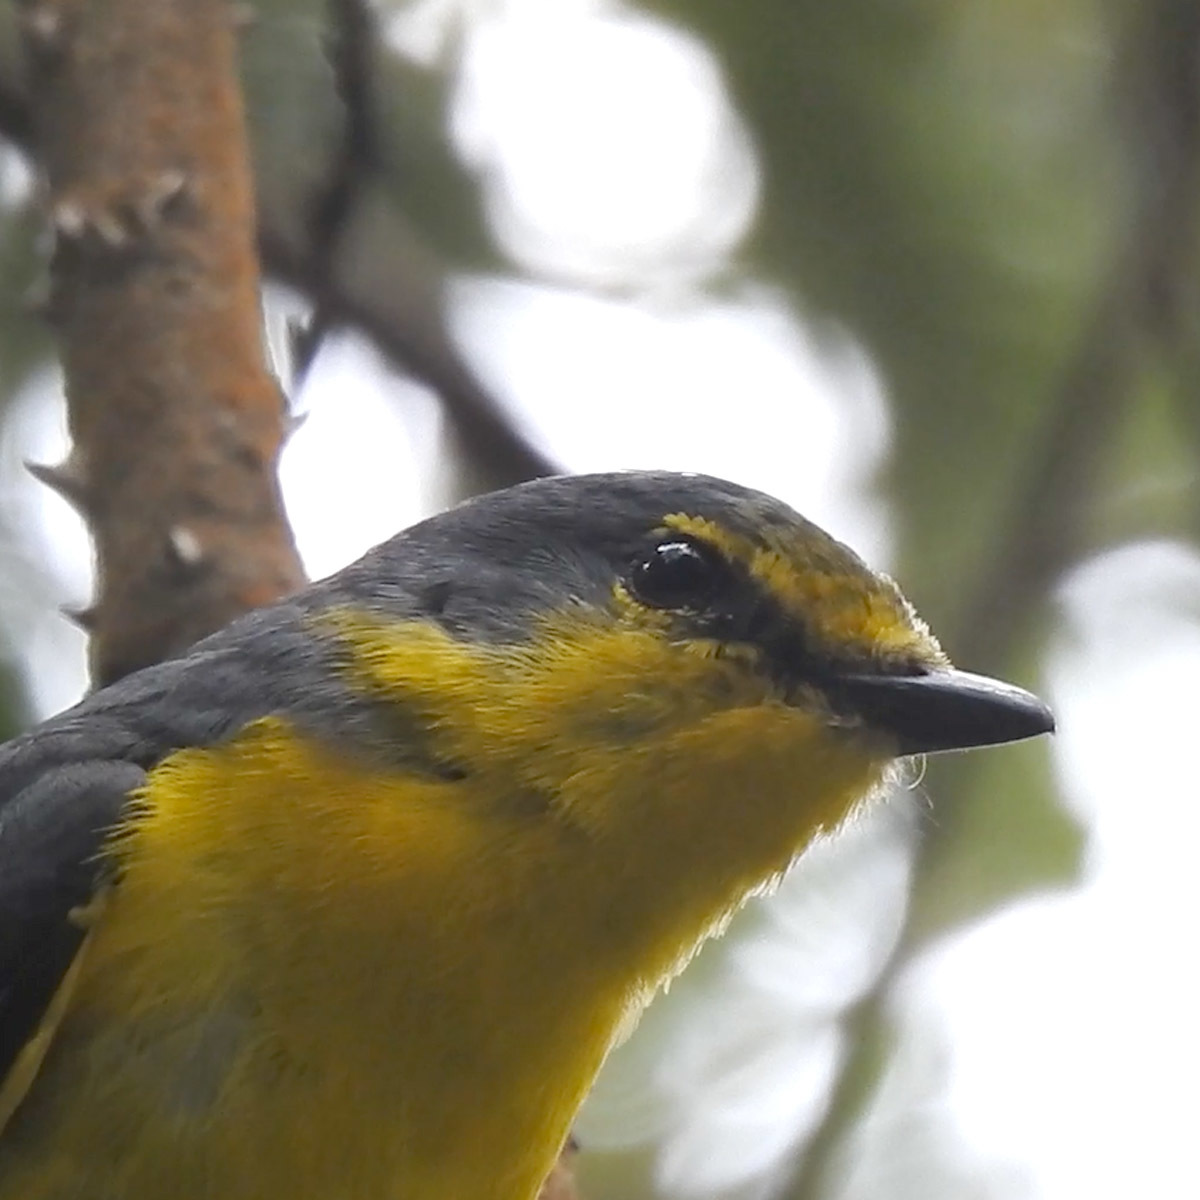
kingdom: Animalia
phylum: Chordata
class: Aves
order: Passeriformes
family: Campephagidae
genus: Pericrocotus
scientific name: Pericrocotus flammeus
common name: Orange minivet
